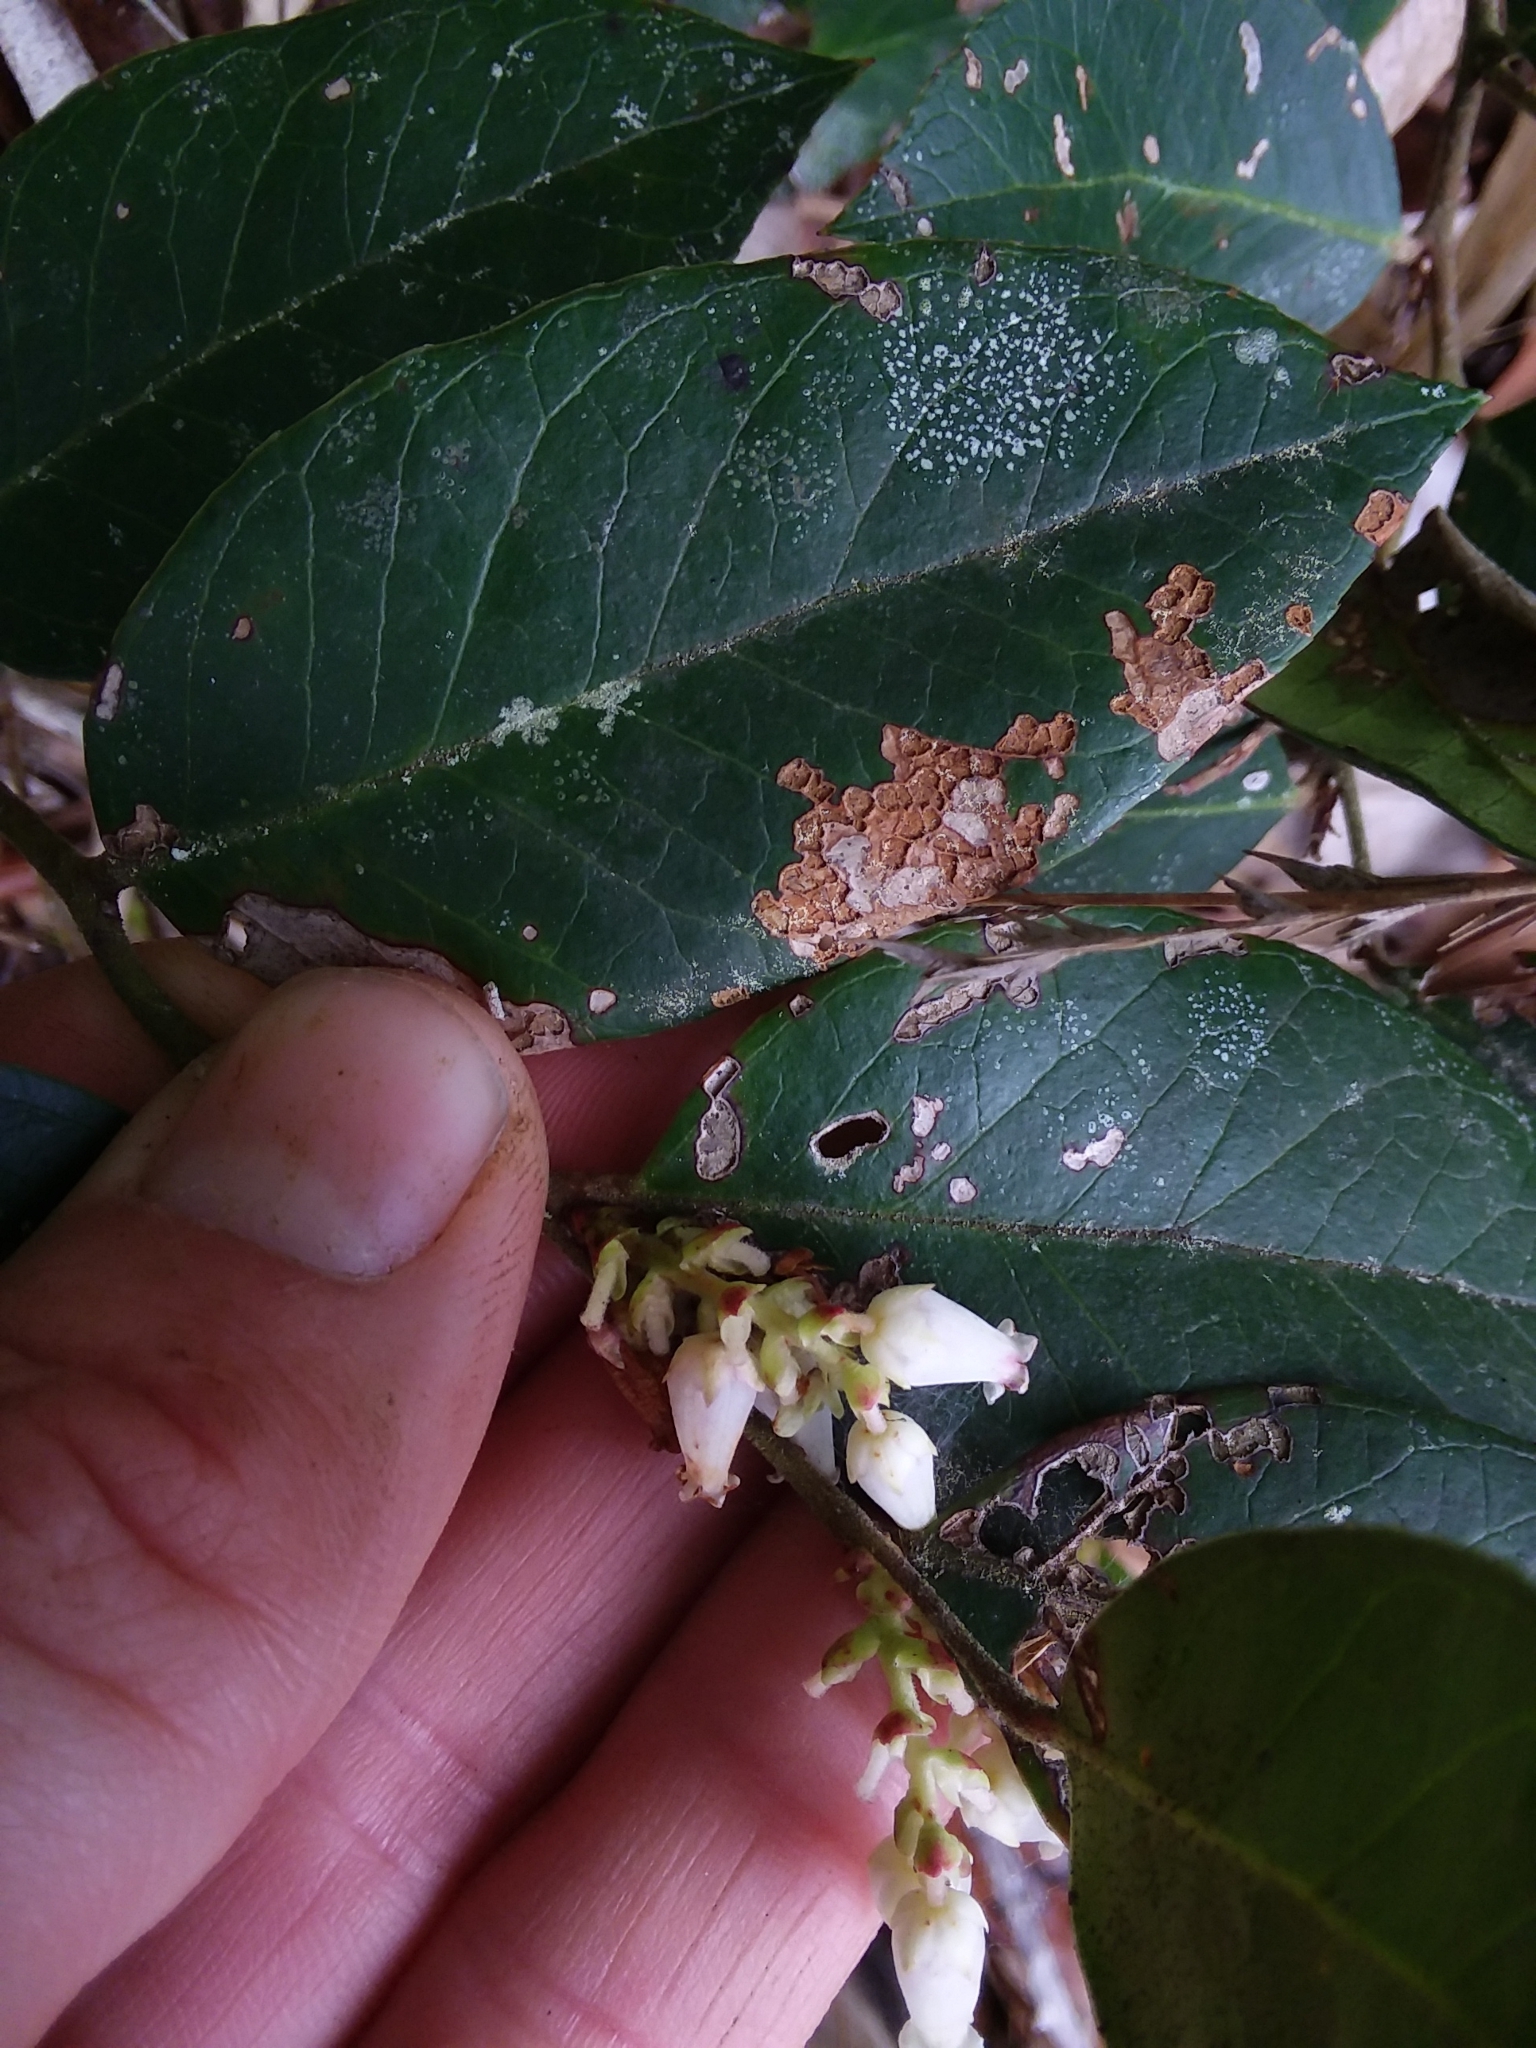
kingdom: Plantae
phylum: Tracheophyta
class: Magnoliopsida
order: Ericales
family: Ericaceae
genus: Leucothoe
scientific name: Leucothoe axillaris
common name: Leucothoe
